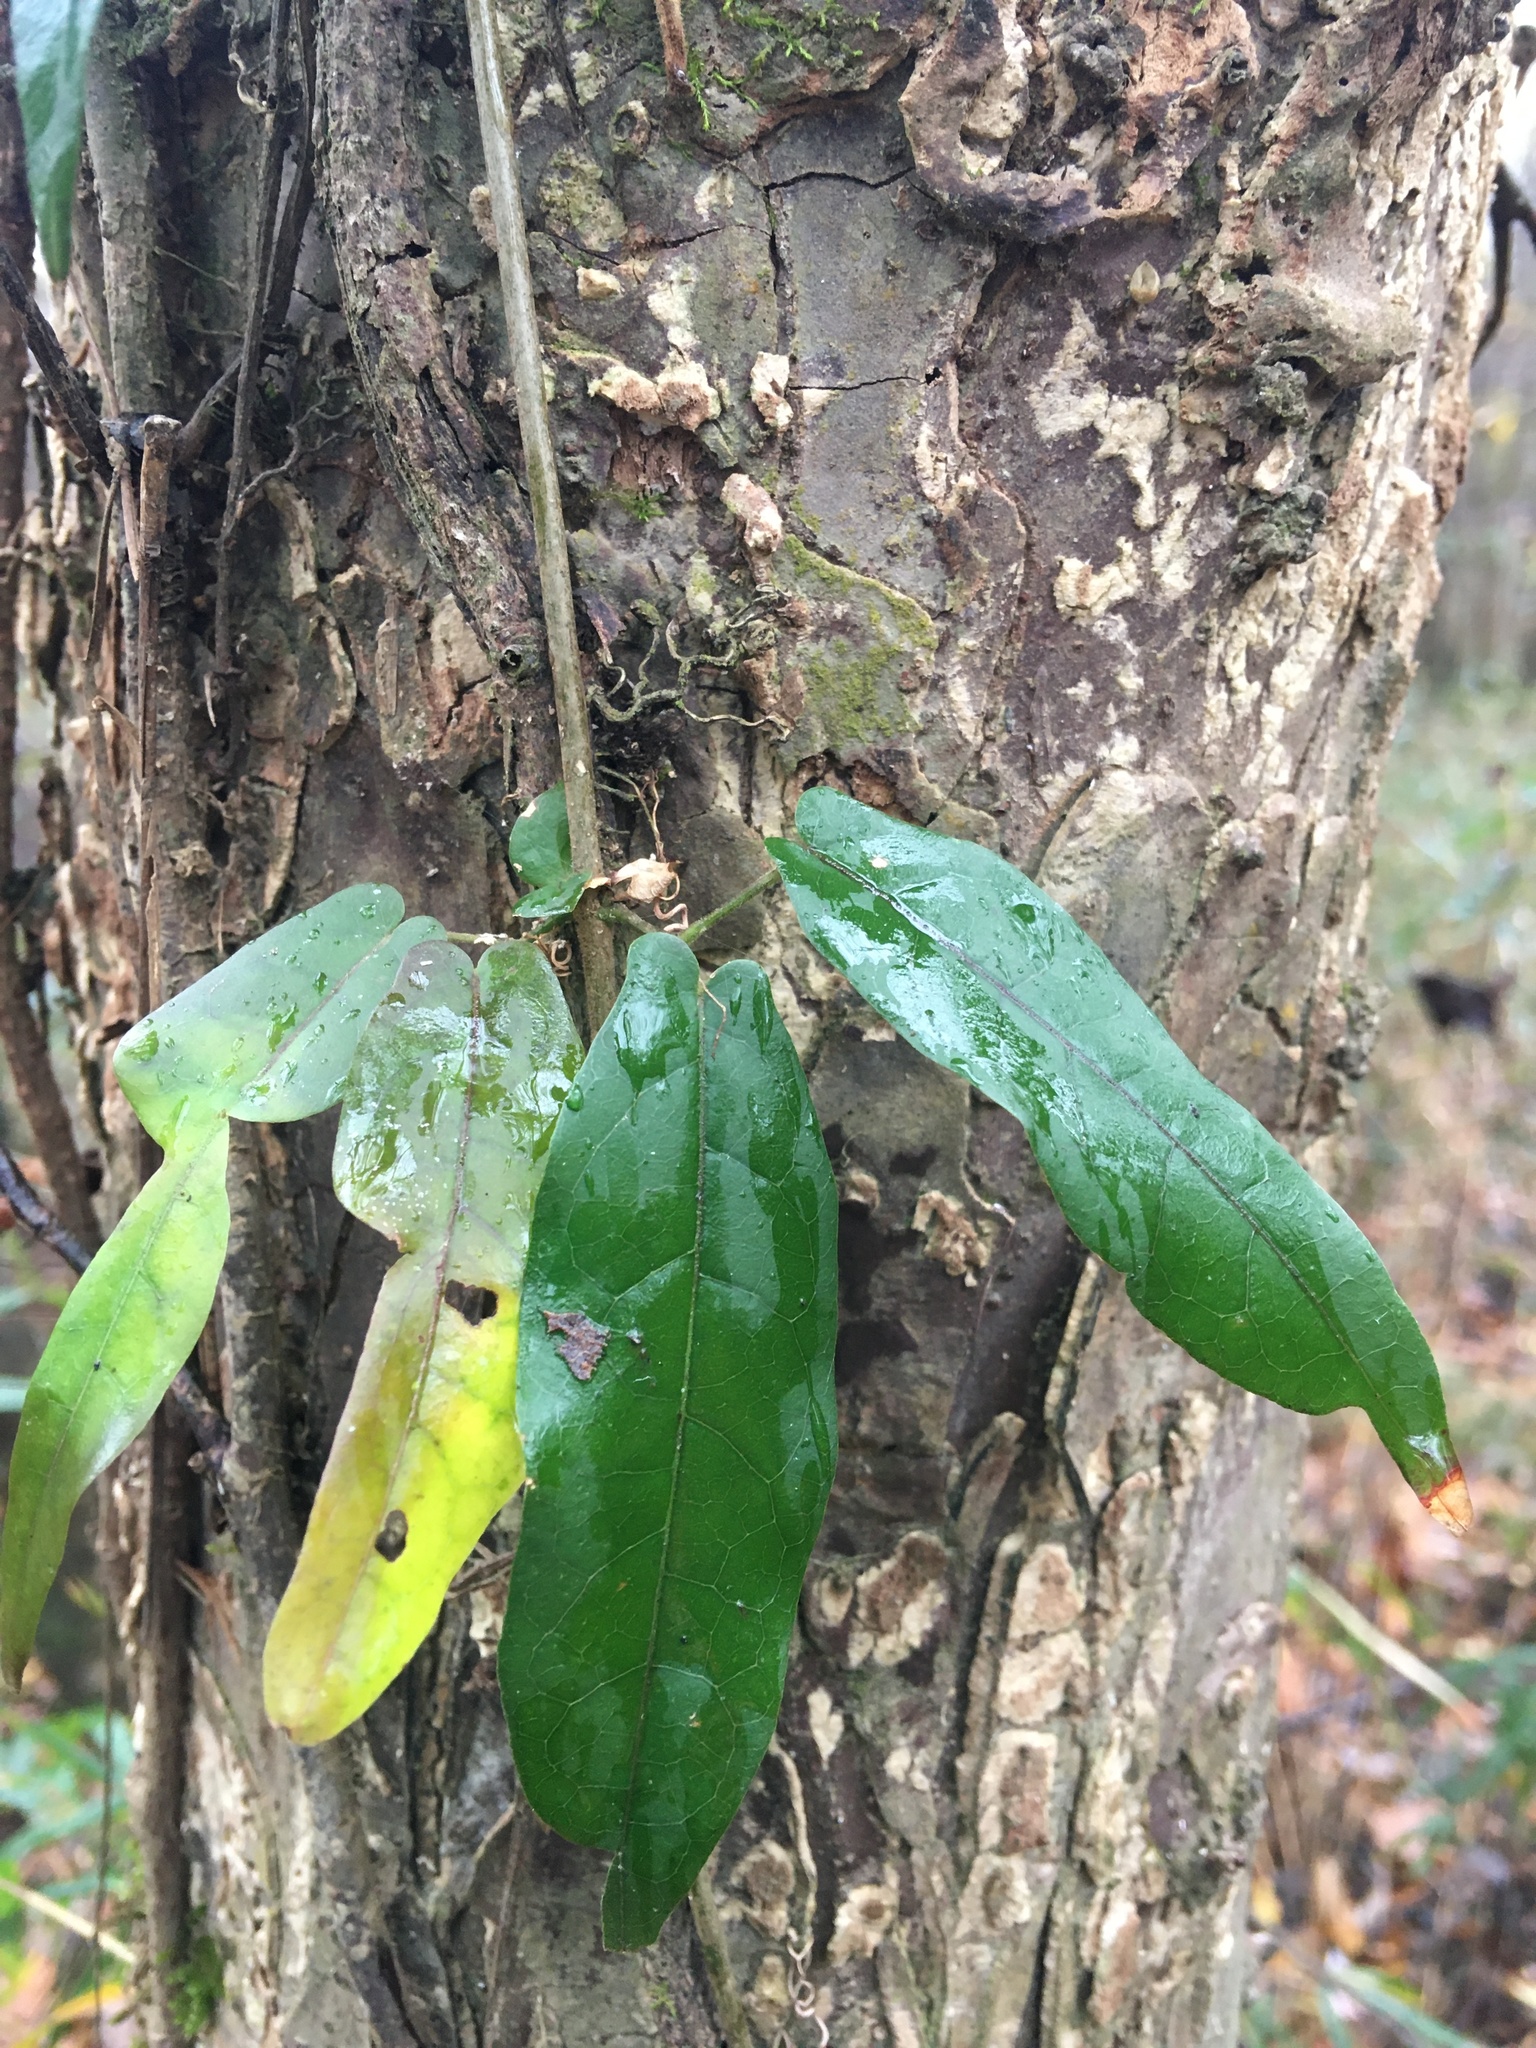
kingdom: Plantae
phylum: Tracheophyta
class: Magnoliopsida
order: Lamiales
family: Bignoniaceae
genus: Bignonia
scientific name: Bignonia capreolata
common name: Crossvine
